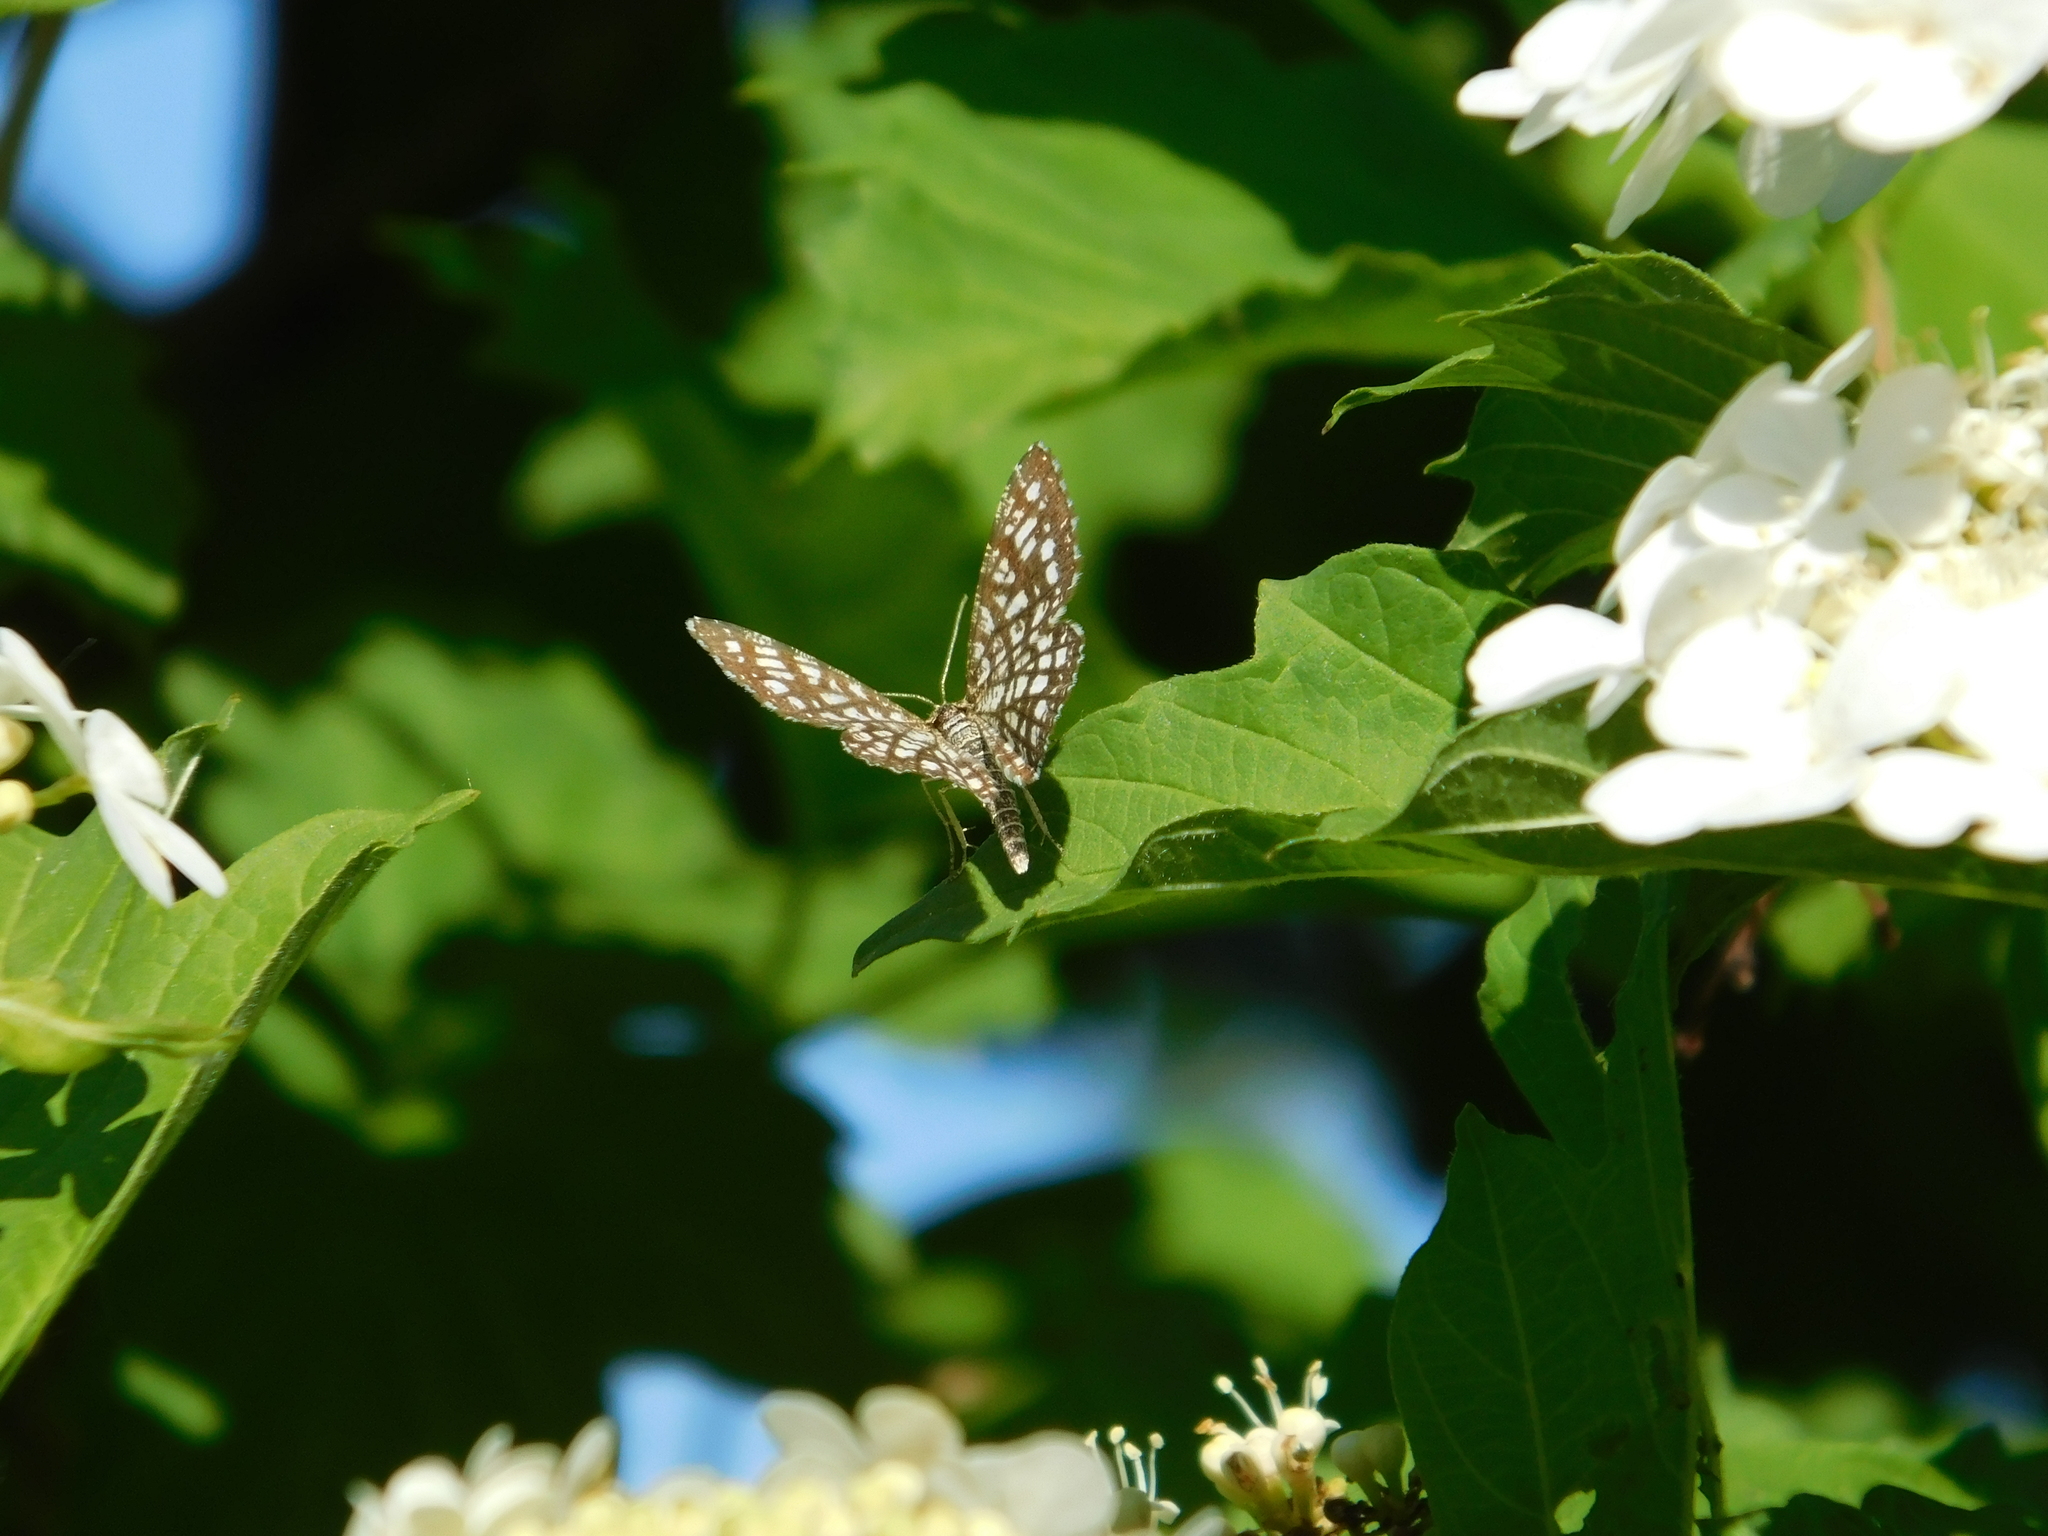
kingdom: Animalia
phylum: Arthropoda
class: Insecta
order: Lepidoptera
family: Geometridae
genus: Chiasmia
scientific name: Chiasmia clathrata
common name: Latticed heath
